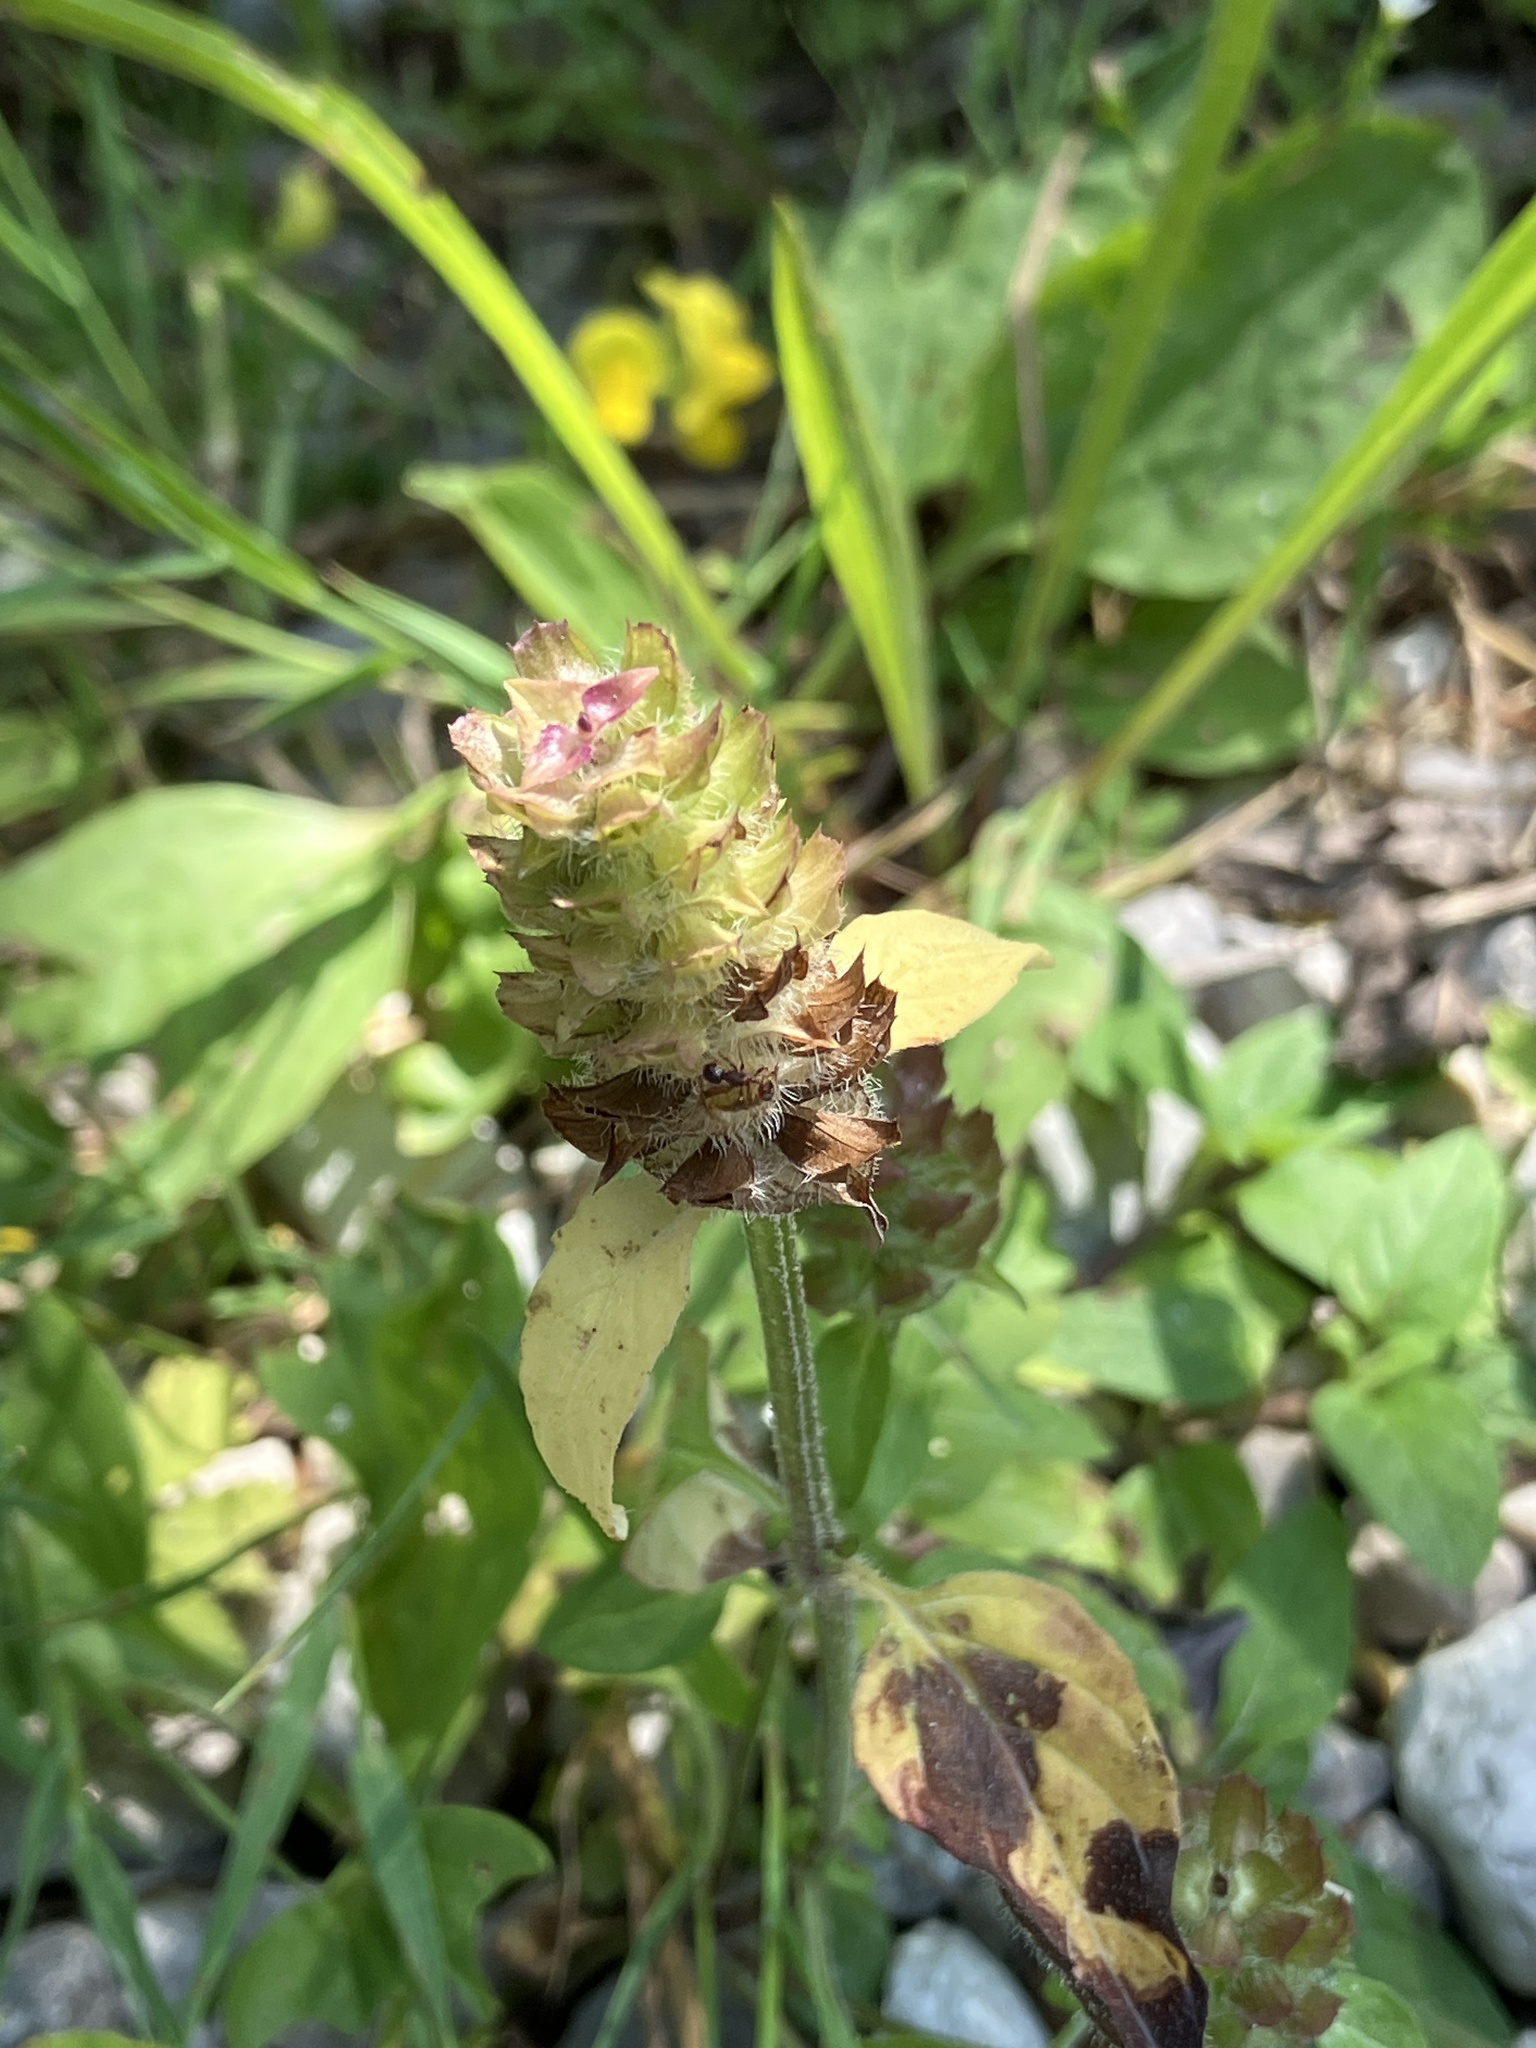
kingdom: Plantae
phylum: Tracheophyta
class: Magnoliopsida
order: Lamiales
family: Lamiaceae
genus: Prunella
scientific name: Prunella vulgaris
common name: Heal-all
